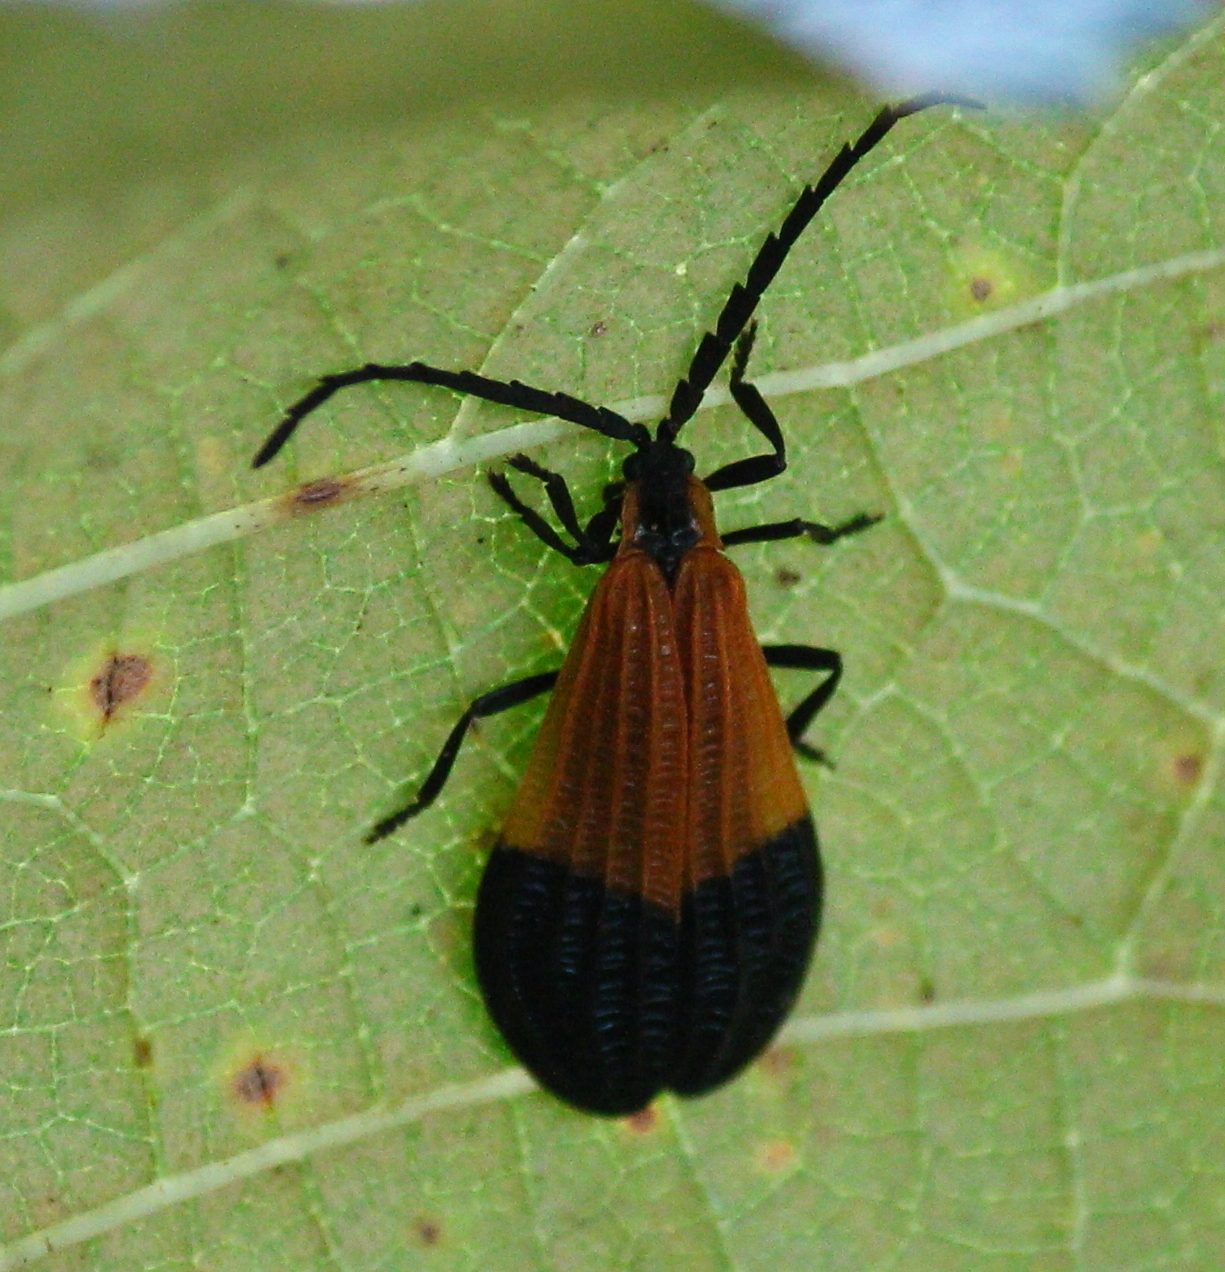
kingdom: Animalia
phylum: Arthropoda
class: Insecta
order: Coleoptera
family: Lycidae
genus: Calopteron
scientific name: Calopteron terminale
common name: End band net-winged beetle
